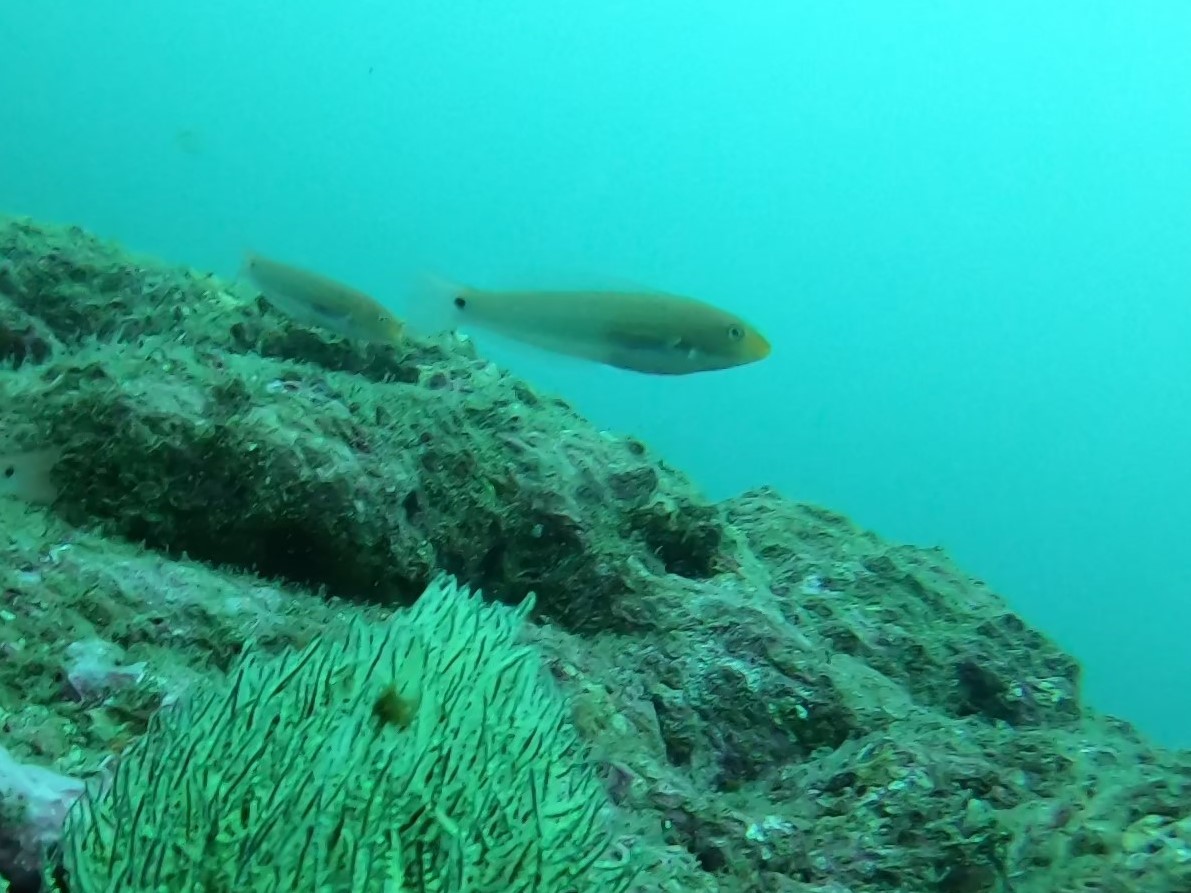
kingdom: Animalia
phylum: Chordata
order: Perciformes
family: Labridae
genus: Halichoeres
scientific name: Halichoeres dispilus
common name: Chameleon wrasse
